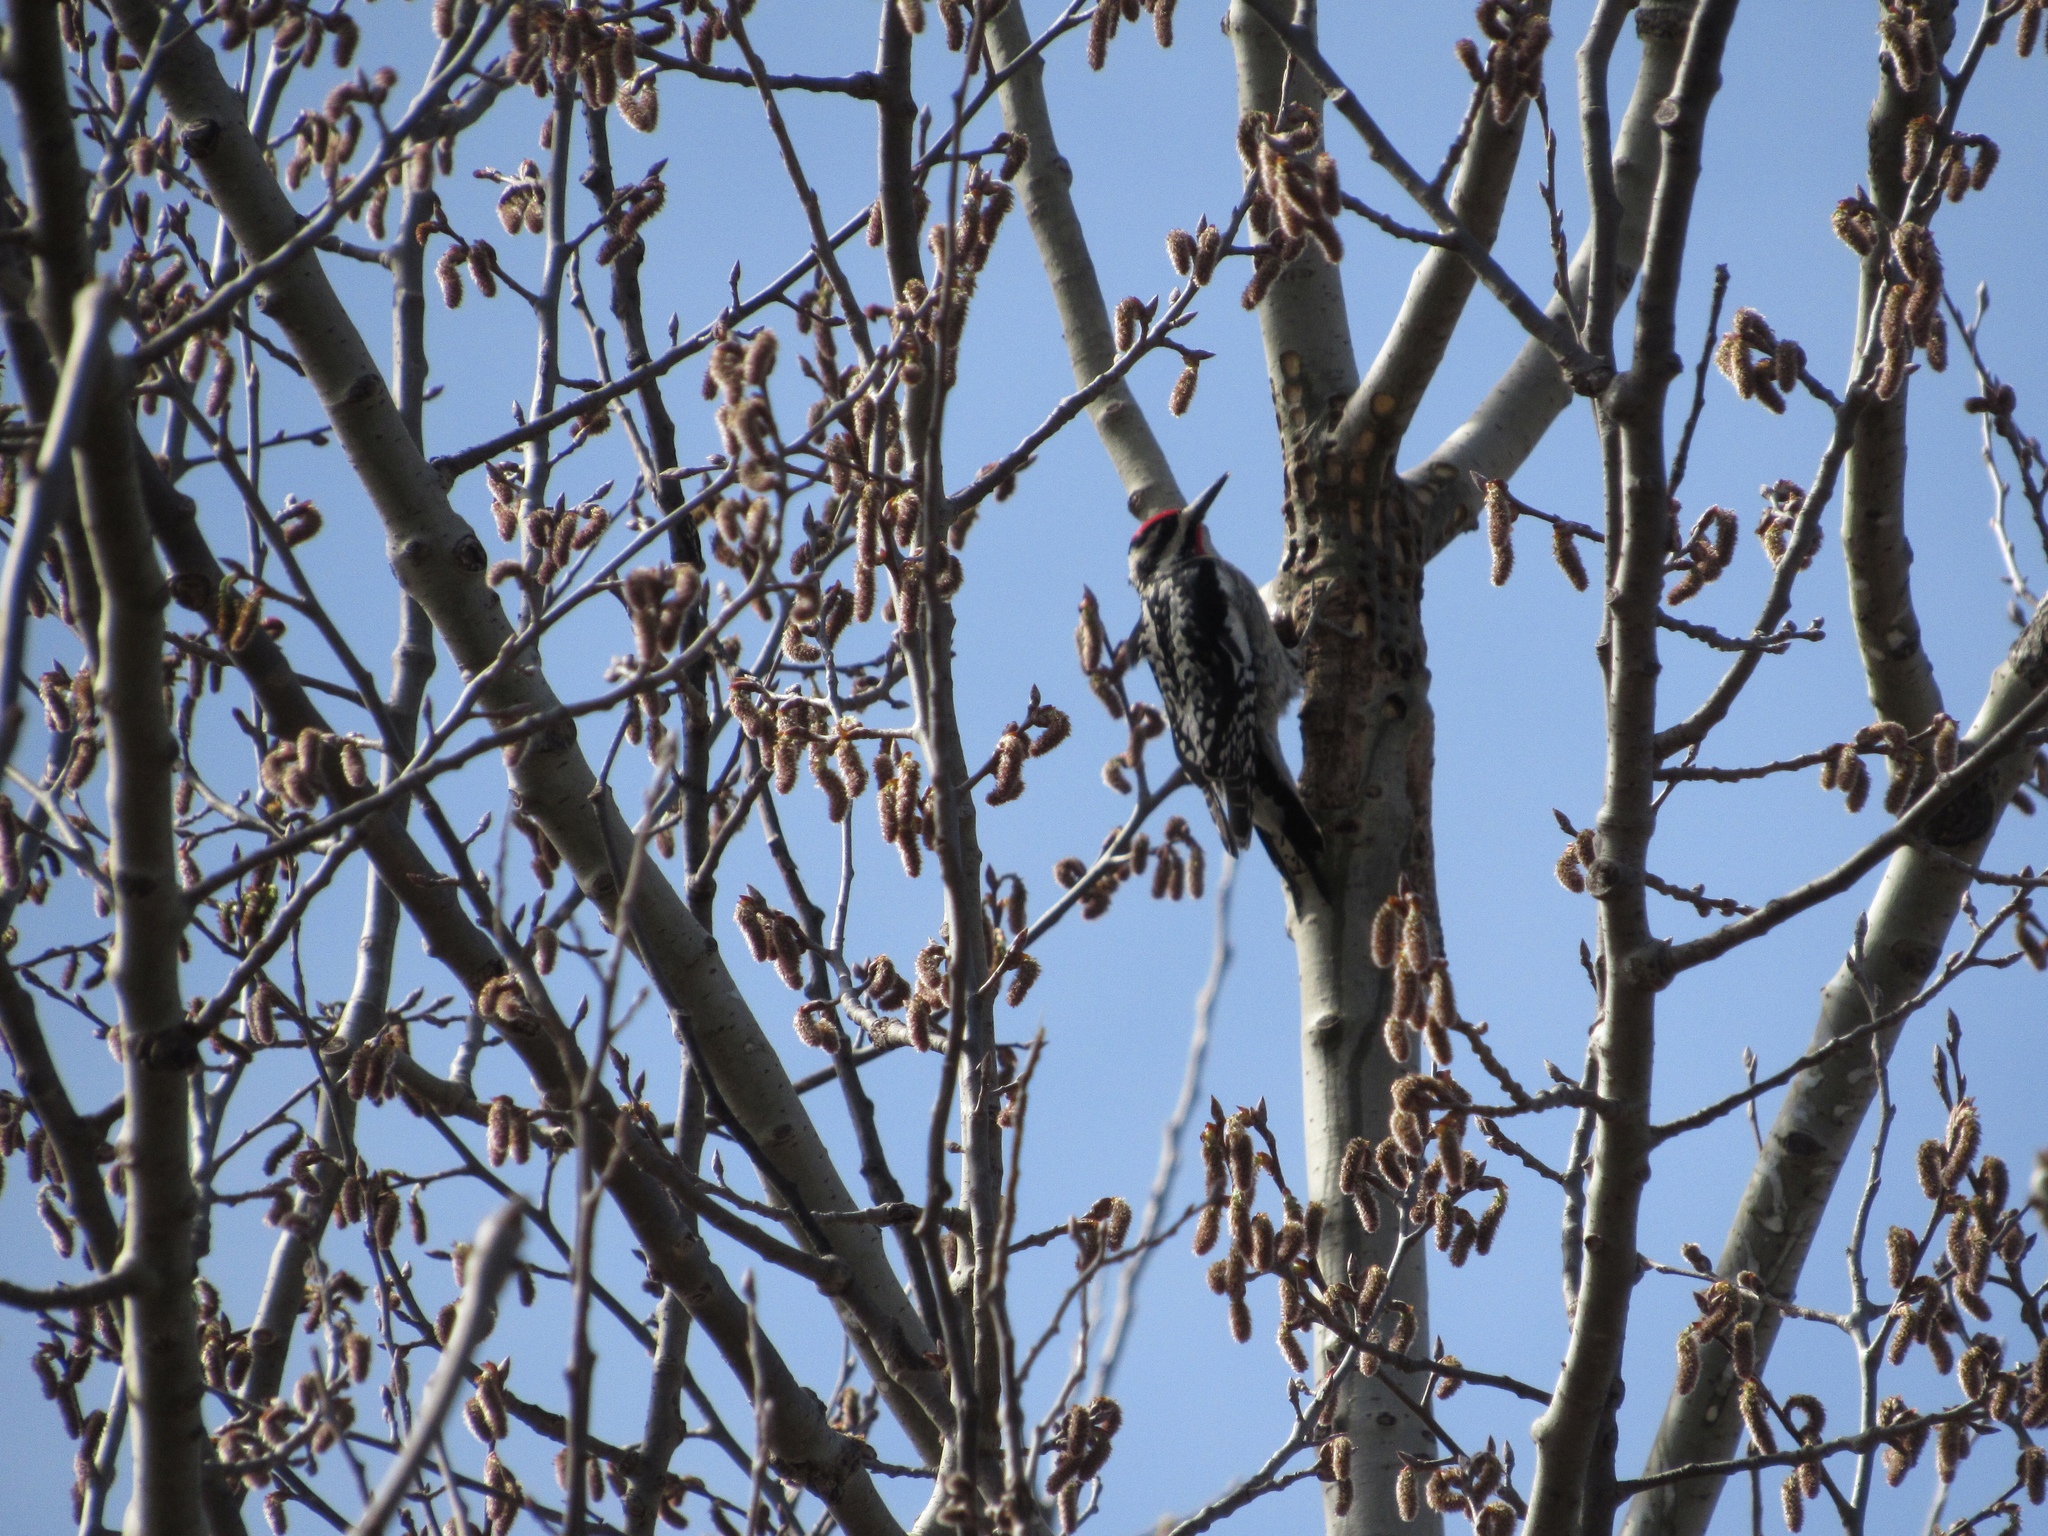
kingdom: Animalia
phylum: Chordata
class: Aves
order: Piciformes
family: Picidae
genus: Sphyrapicus
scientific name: Sphyrapicus varius
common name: Yellow-bellied sapsucker
